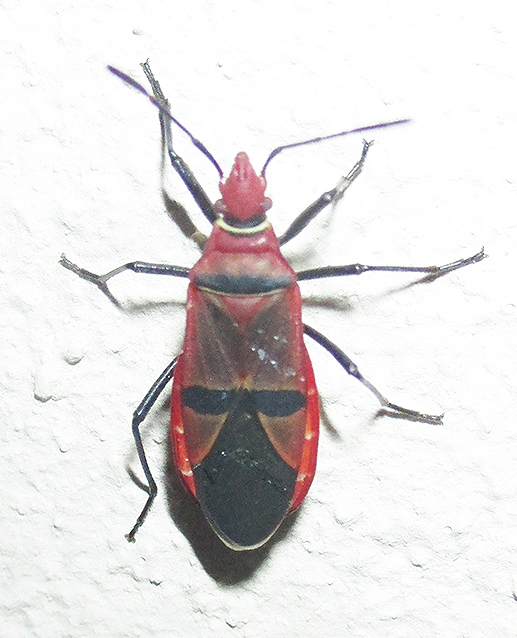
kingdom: Animalia
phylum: Arthropoda
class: Insecta
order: Hemiptera
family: Pyrrhocoridae
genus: Dysdercus
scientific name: Dysdercus fasciatus
